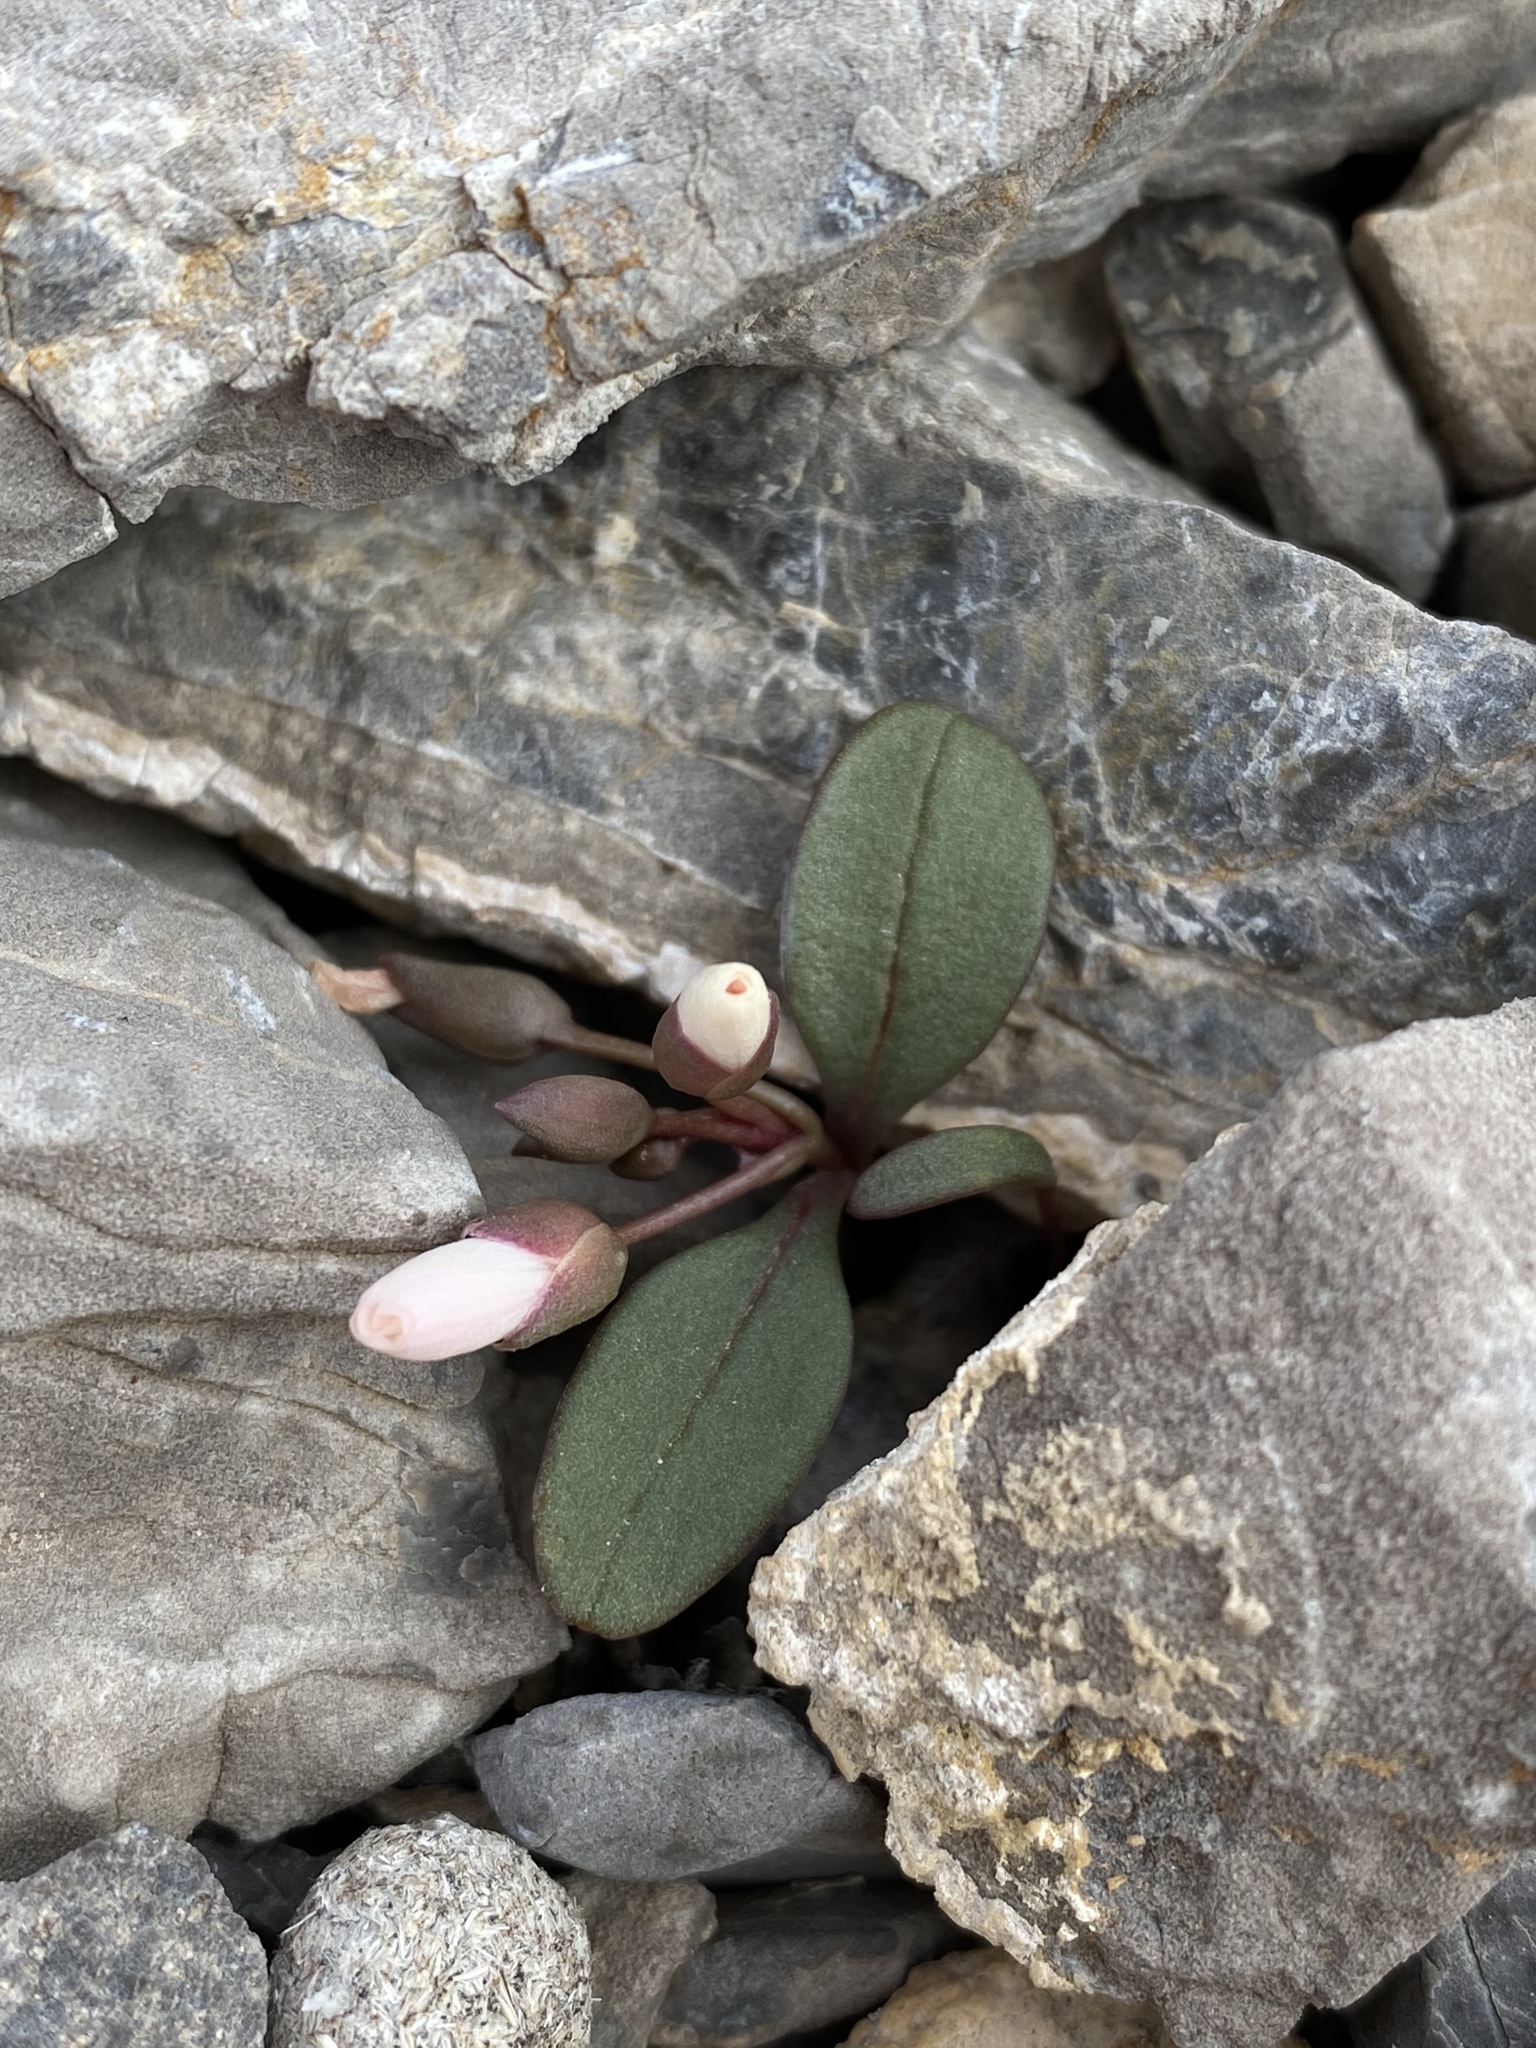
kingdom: Plantae
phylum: Tracheophyta
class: Magnoliopsida
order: Caryophyllales
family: Montiaceae
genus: Claytonia
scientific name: Claytonia panamintensis
